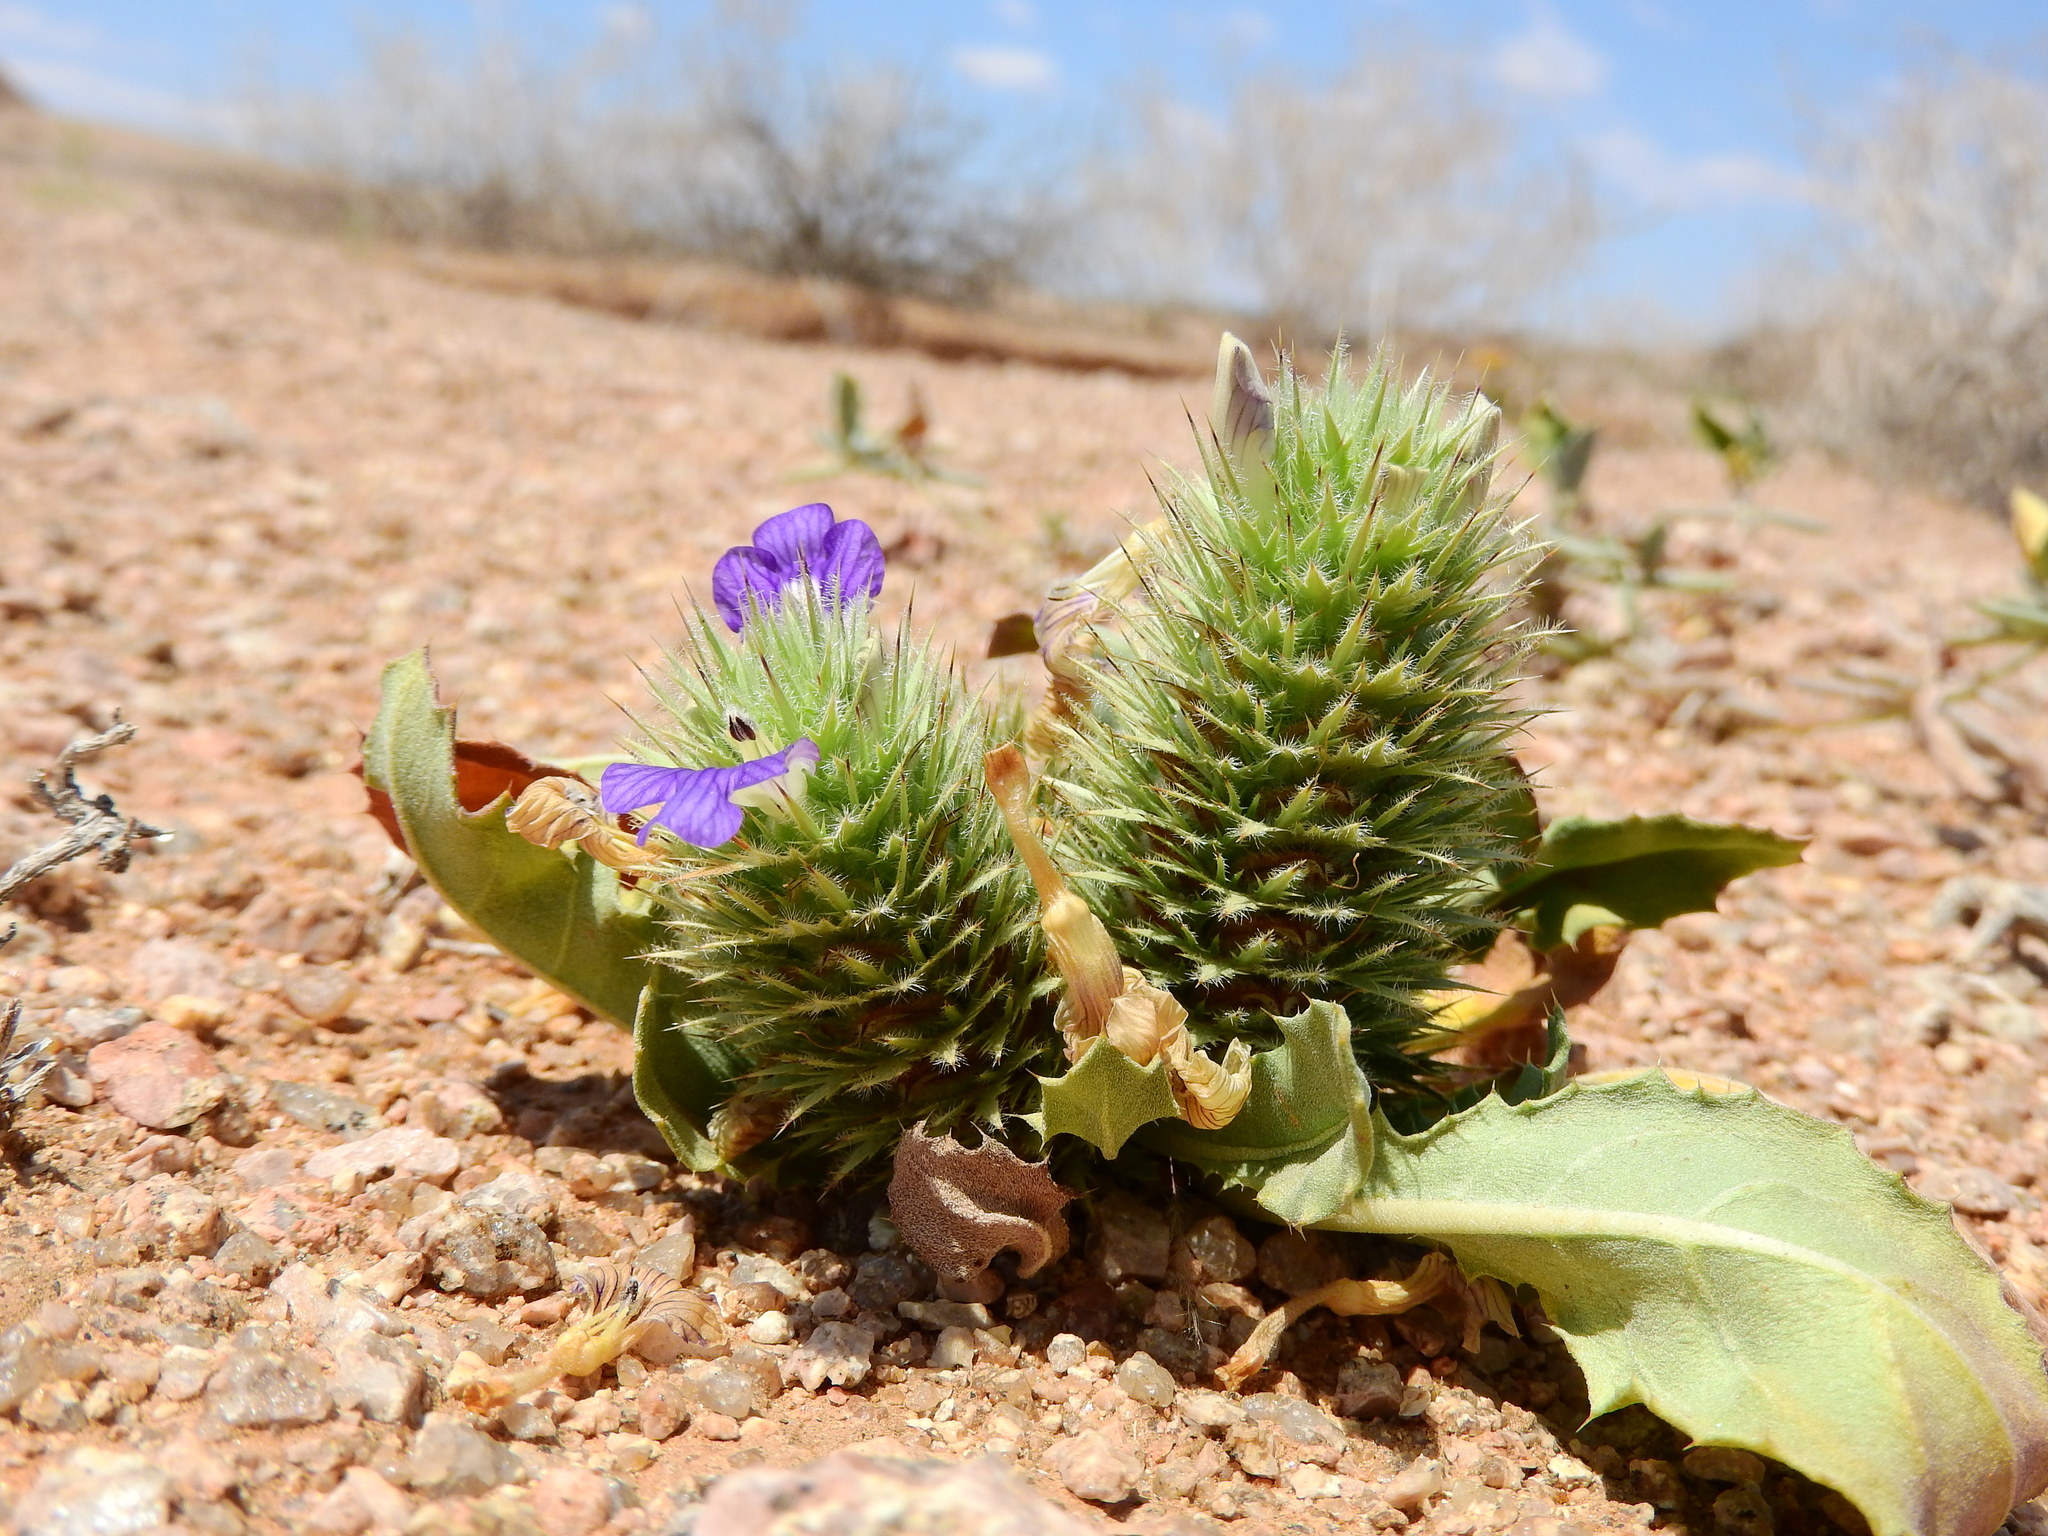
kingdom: Plantae
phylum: Tracheophyta
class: Magnoliopsida
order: Lamiales
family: Acanthaceae
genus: Acanthopsis
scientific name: Acanthopsis disperma
